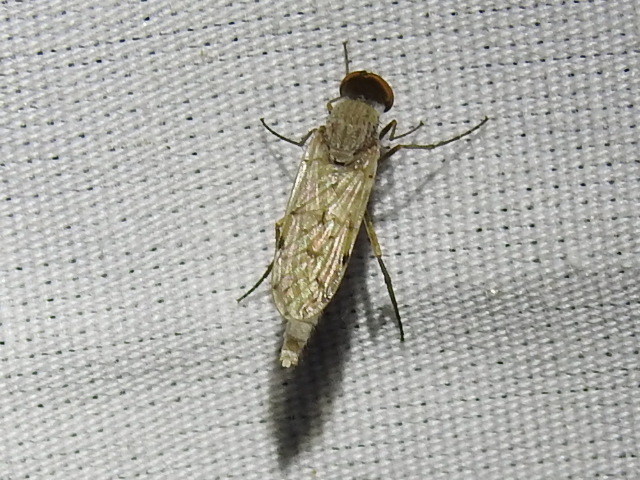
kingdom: Animalia
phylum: Arthropoda
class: Insecta
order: Diptera
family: Therevidae
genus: Litolinga
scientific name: Litolinga acuta
